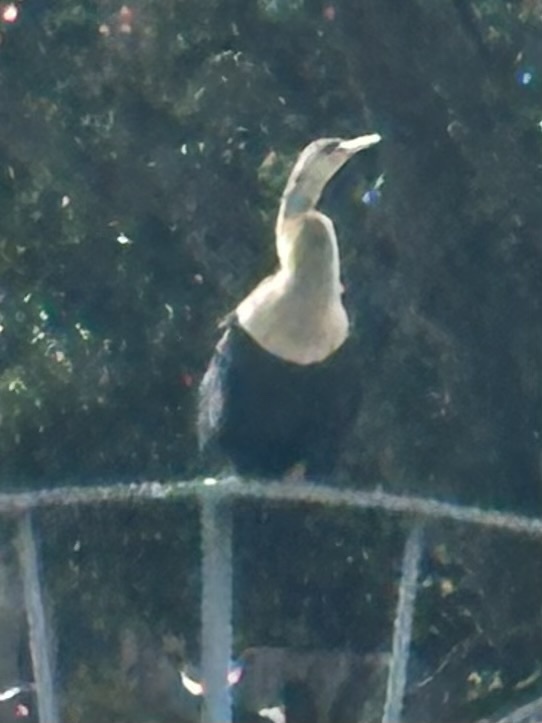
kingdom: Animalia
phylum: Chordata
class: Aves
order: Suliformes
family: Anhingidae
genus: Anhinga
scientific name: Anhinga anhinga
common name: Anhinga
